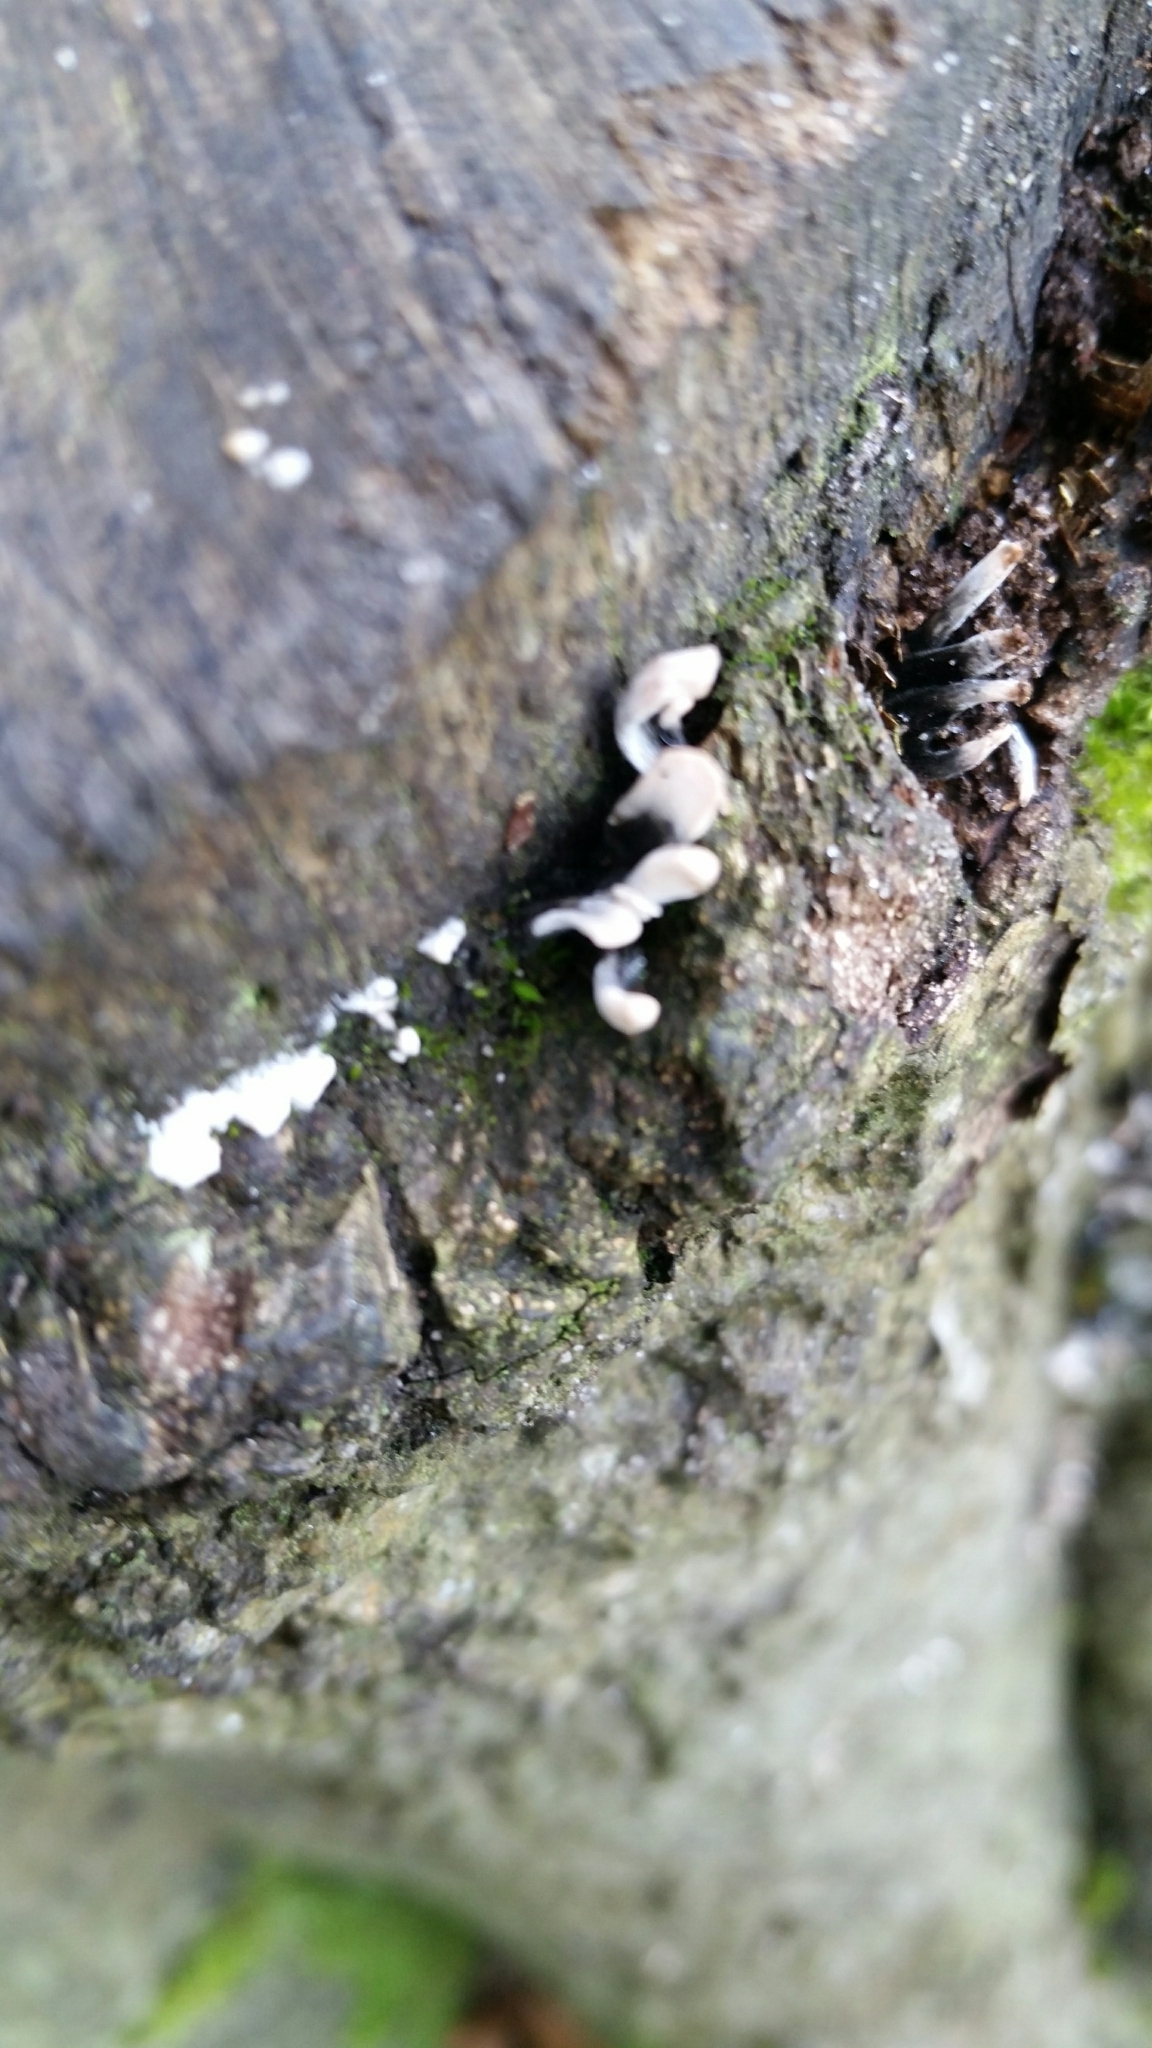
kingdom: Fungi
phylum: Ascomycota
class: Sordariomycetes
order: Xylariales
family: Xylariaceae
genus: Xylaria
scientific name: Xylaria hypoxylon
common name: Candle-snuff fungus
